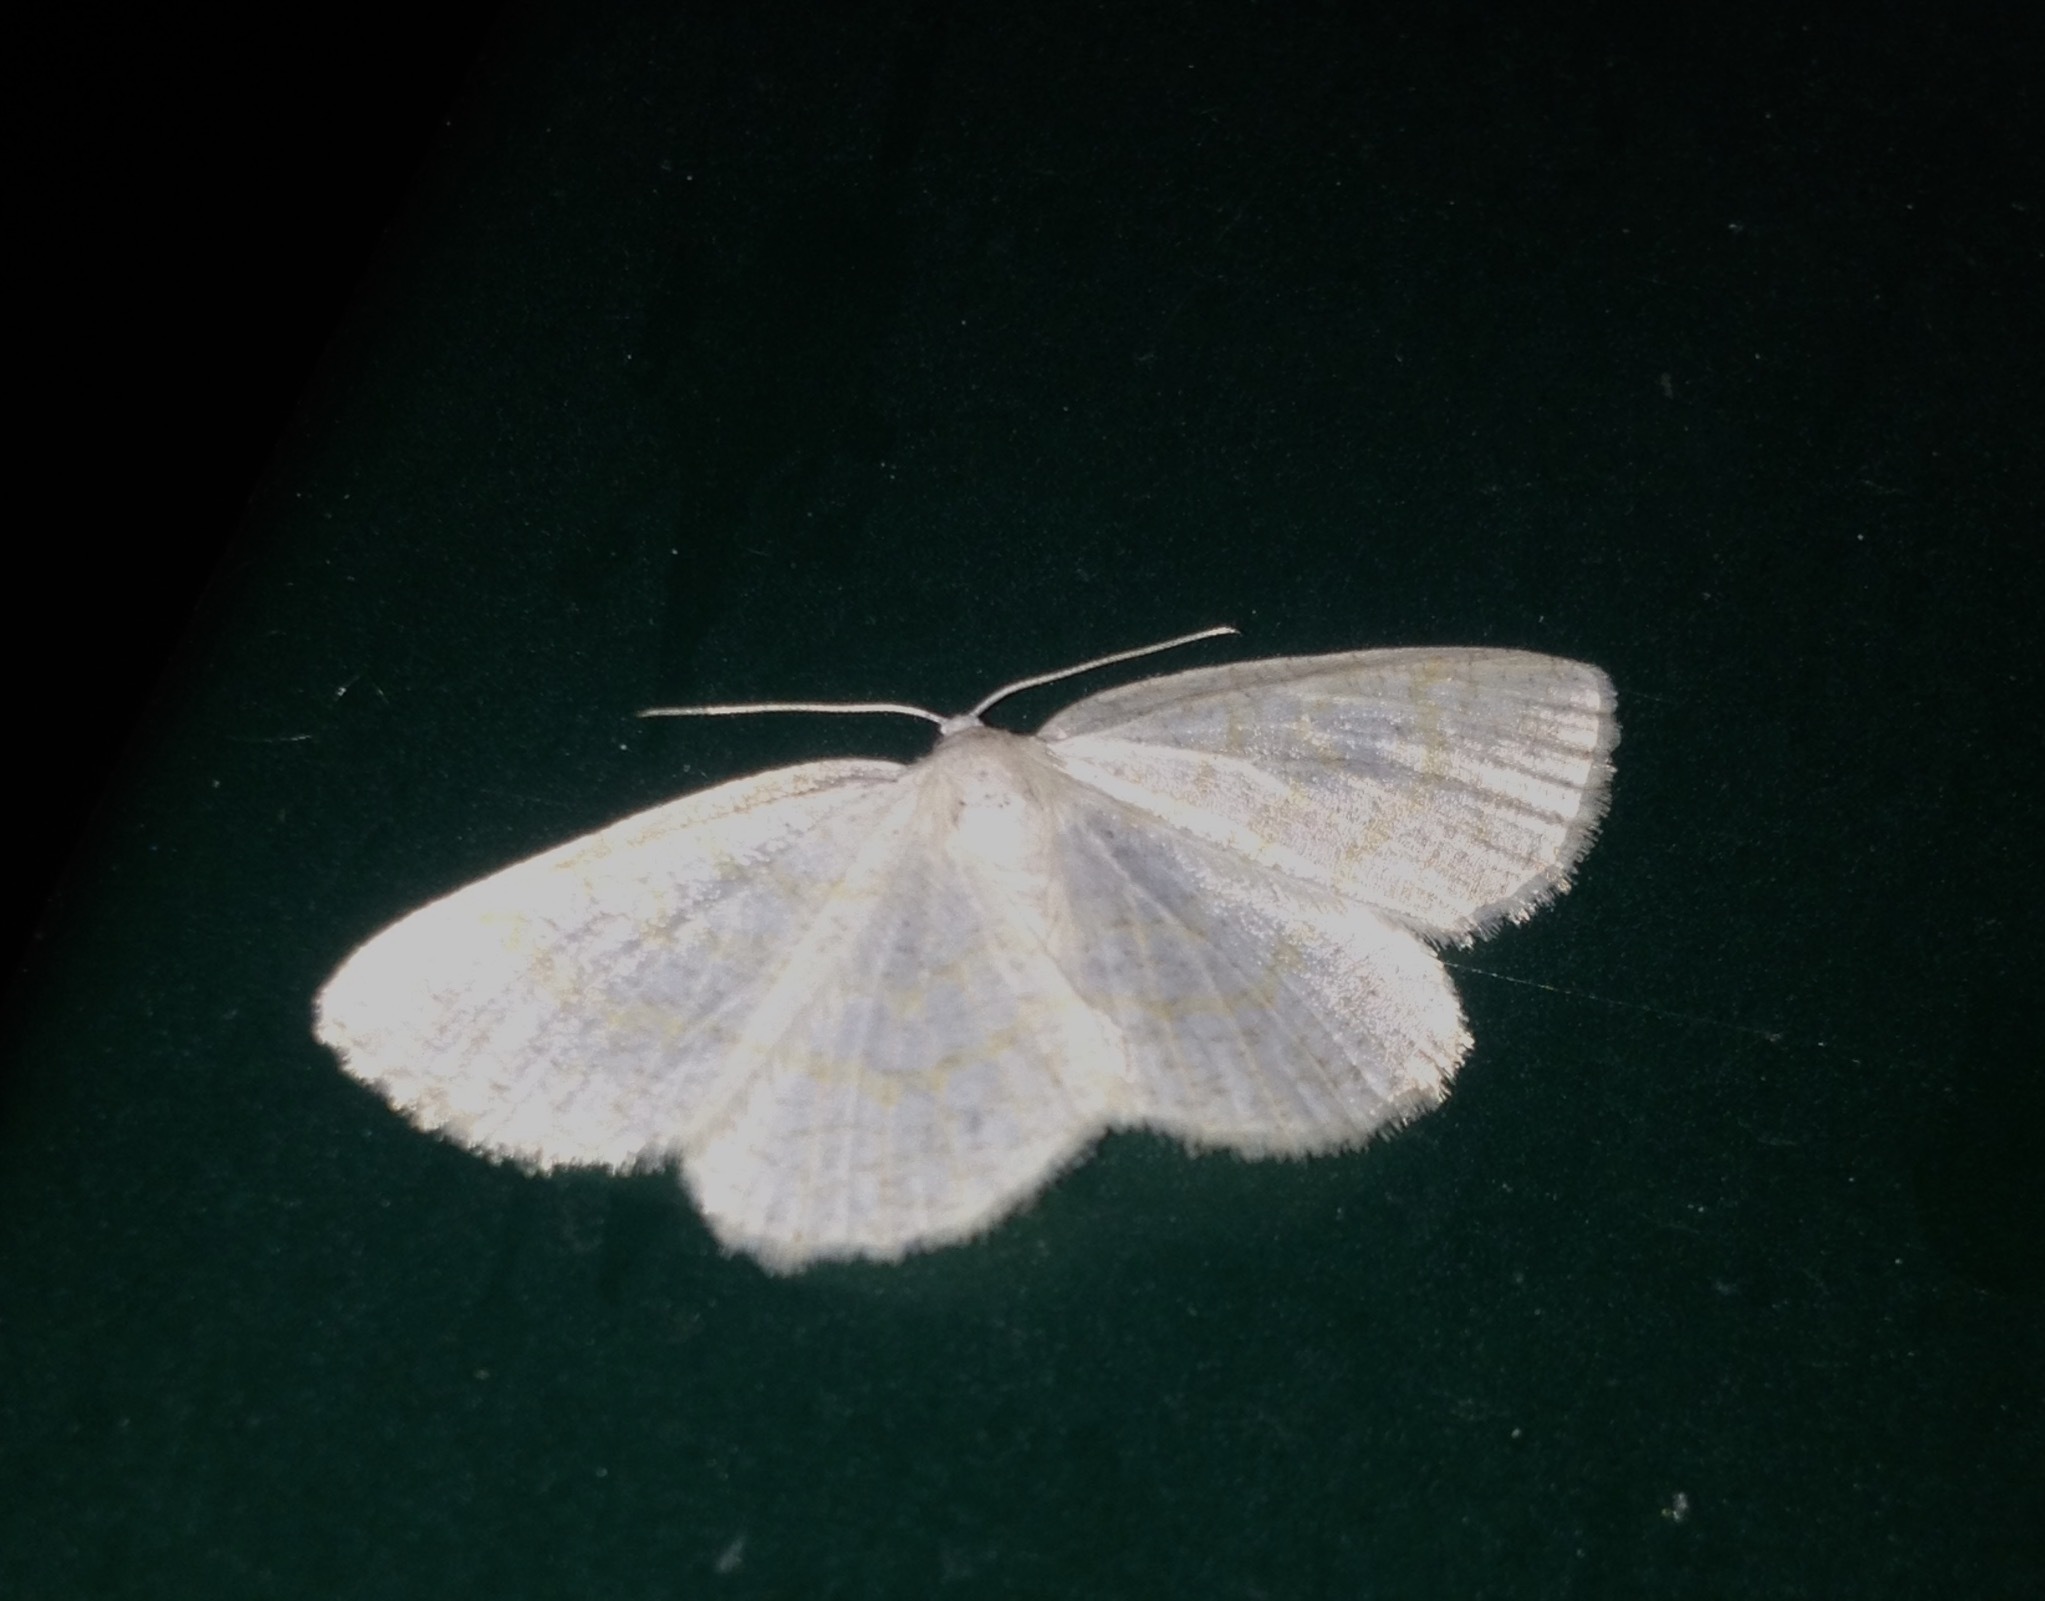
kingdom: Animalia
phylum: Arthropoda
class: Insecta
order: Lepidoptera
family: Geometridae
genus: Cabera
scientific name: Cabera exanthemata
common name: Common wave
